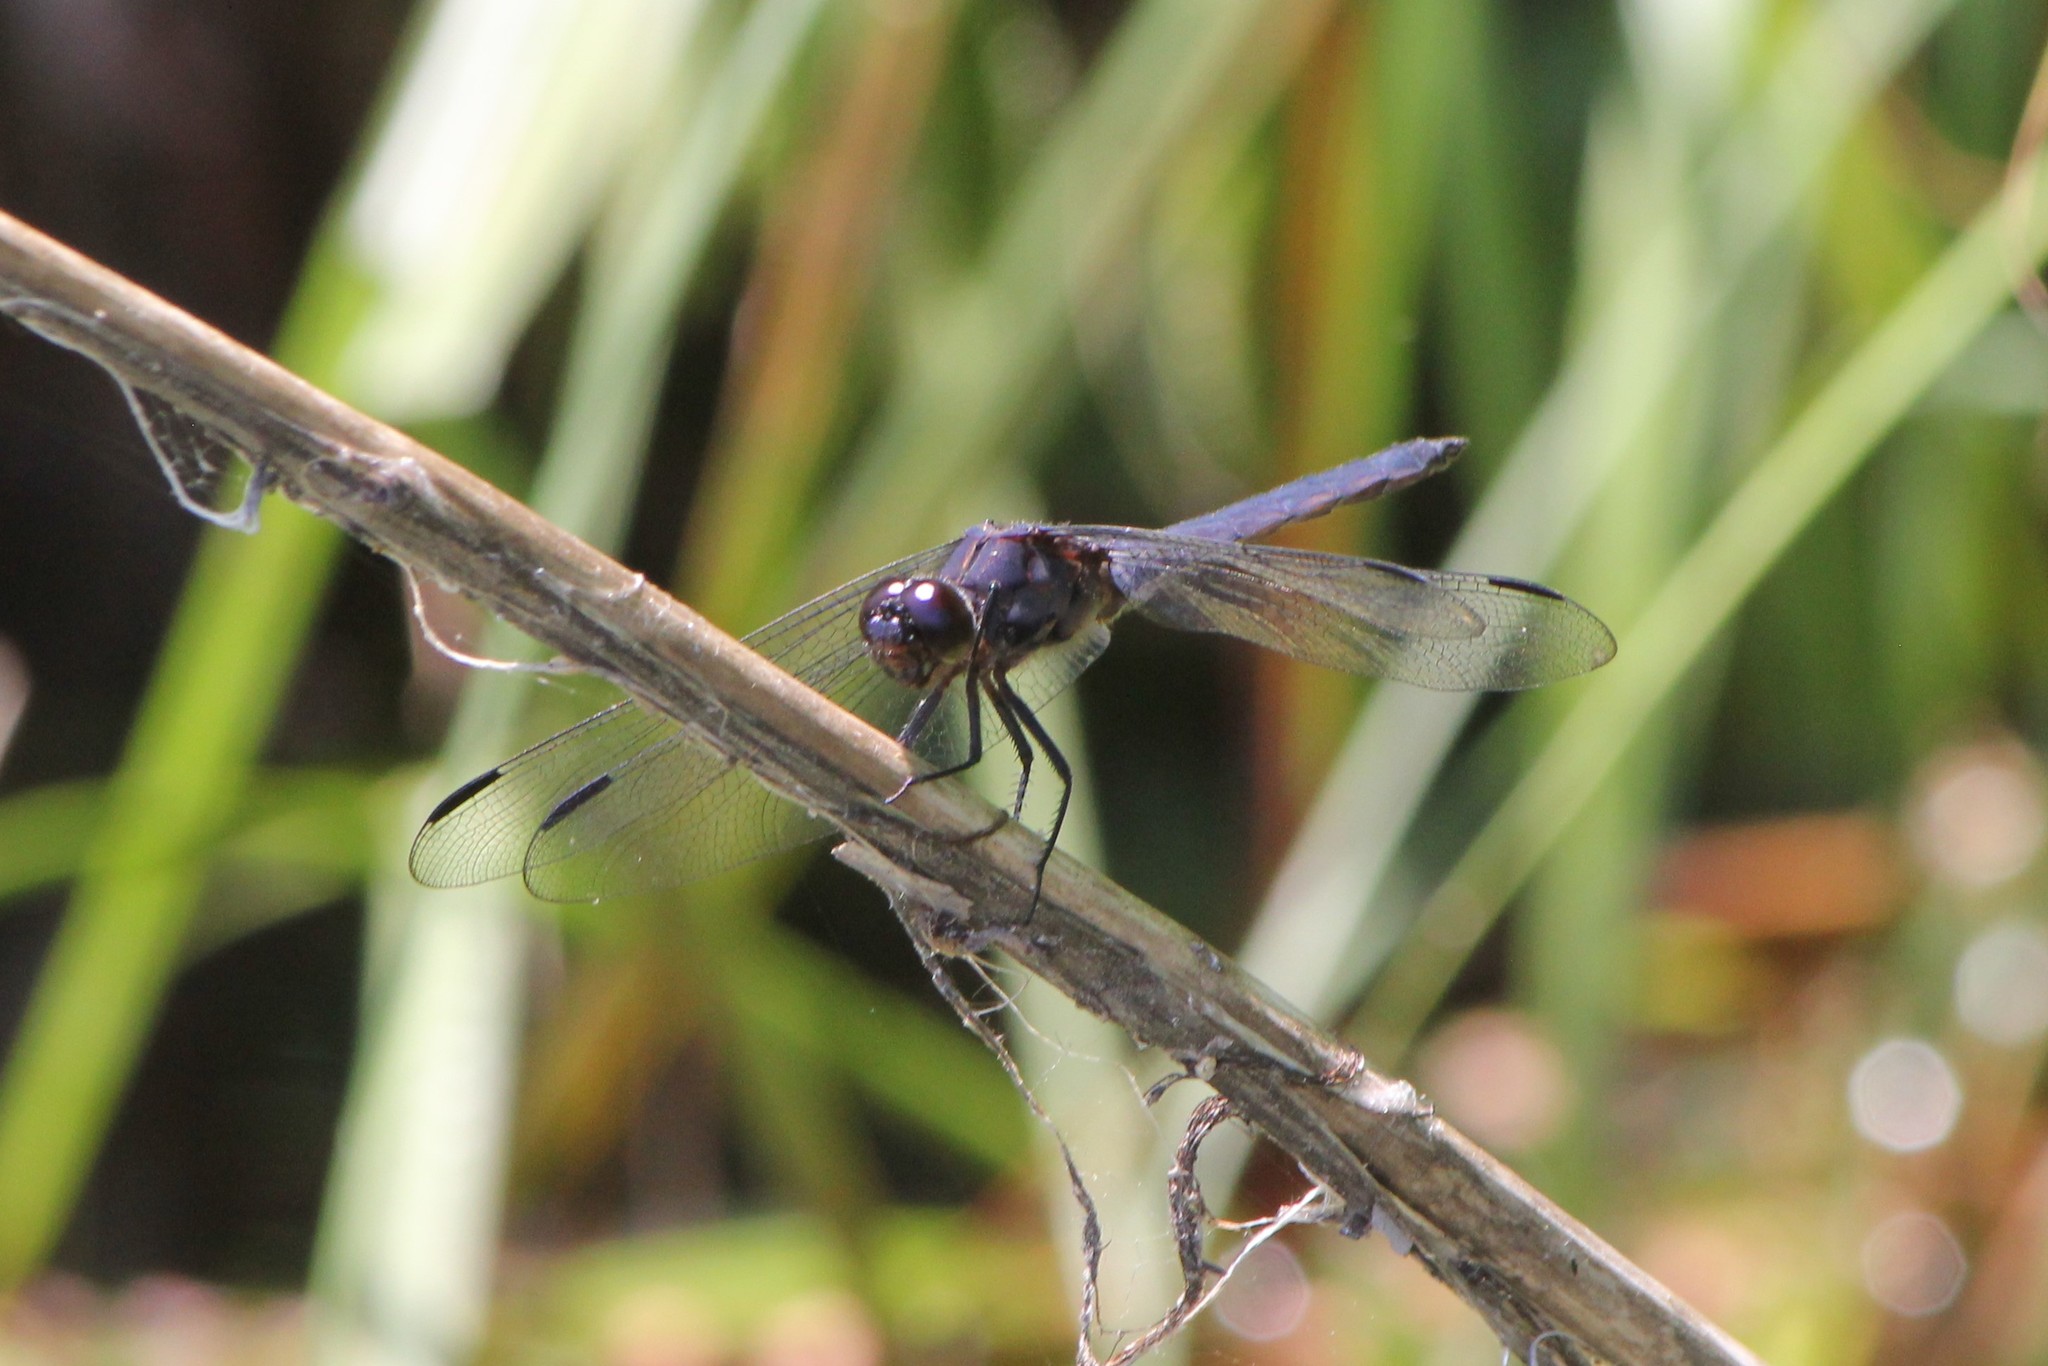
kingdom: Animalia
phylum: Arthropoda
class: Insecta
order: Odonata
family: Libellulidae
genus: Libellula
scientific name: Libellula incesta
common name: Slaty skimmer
